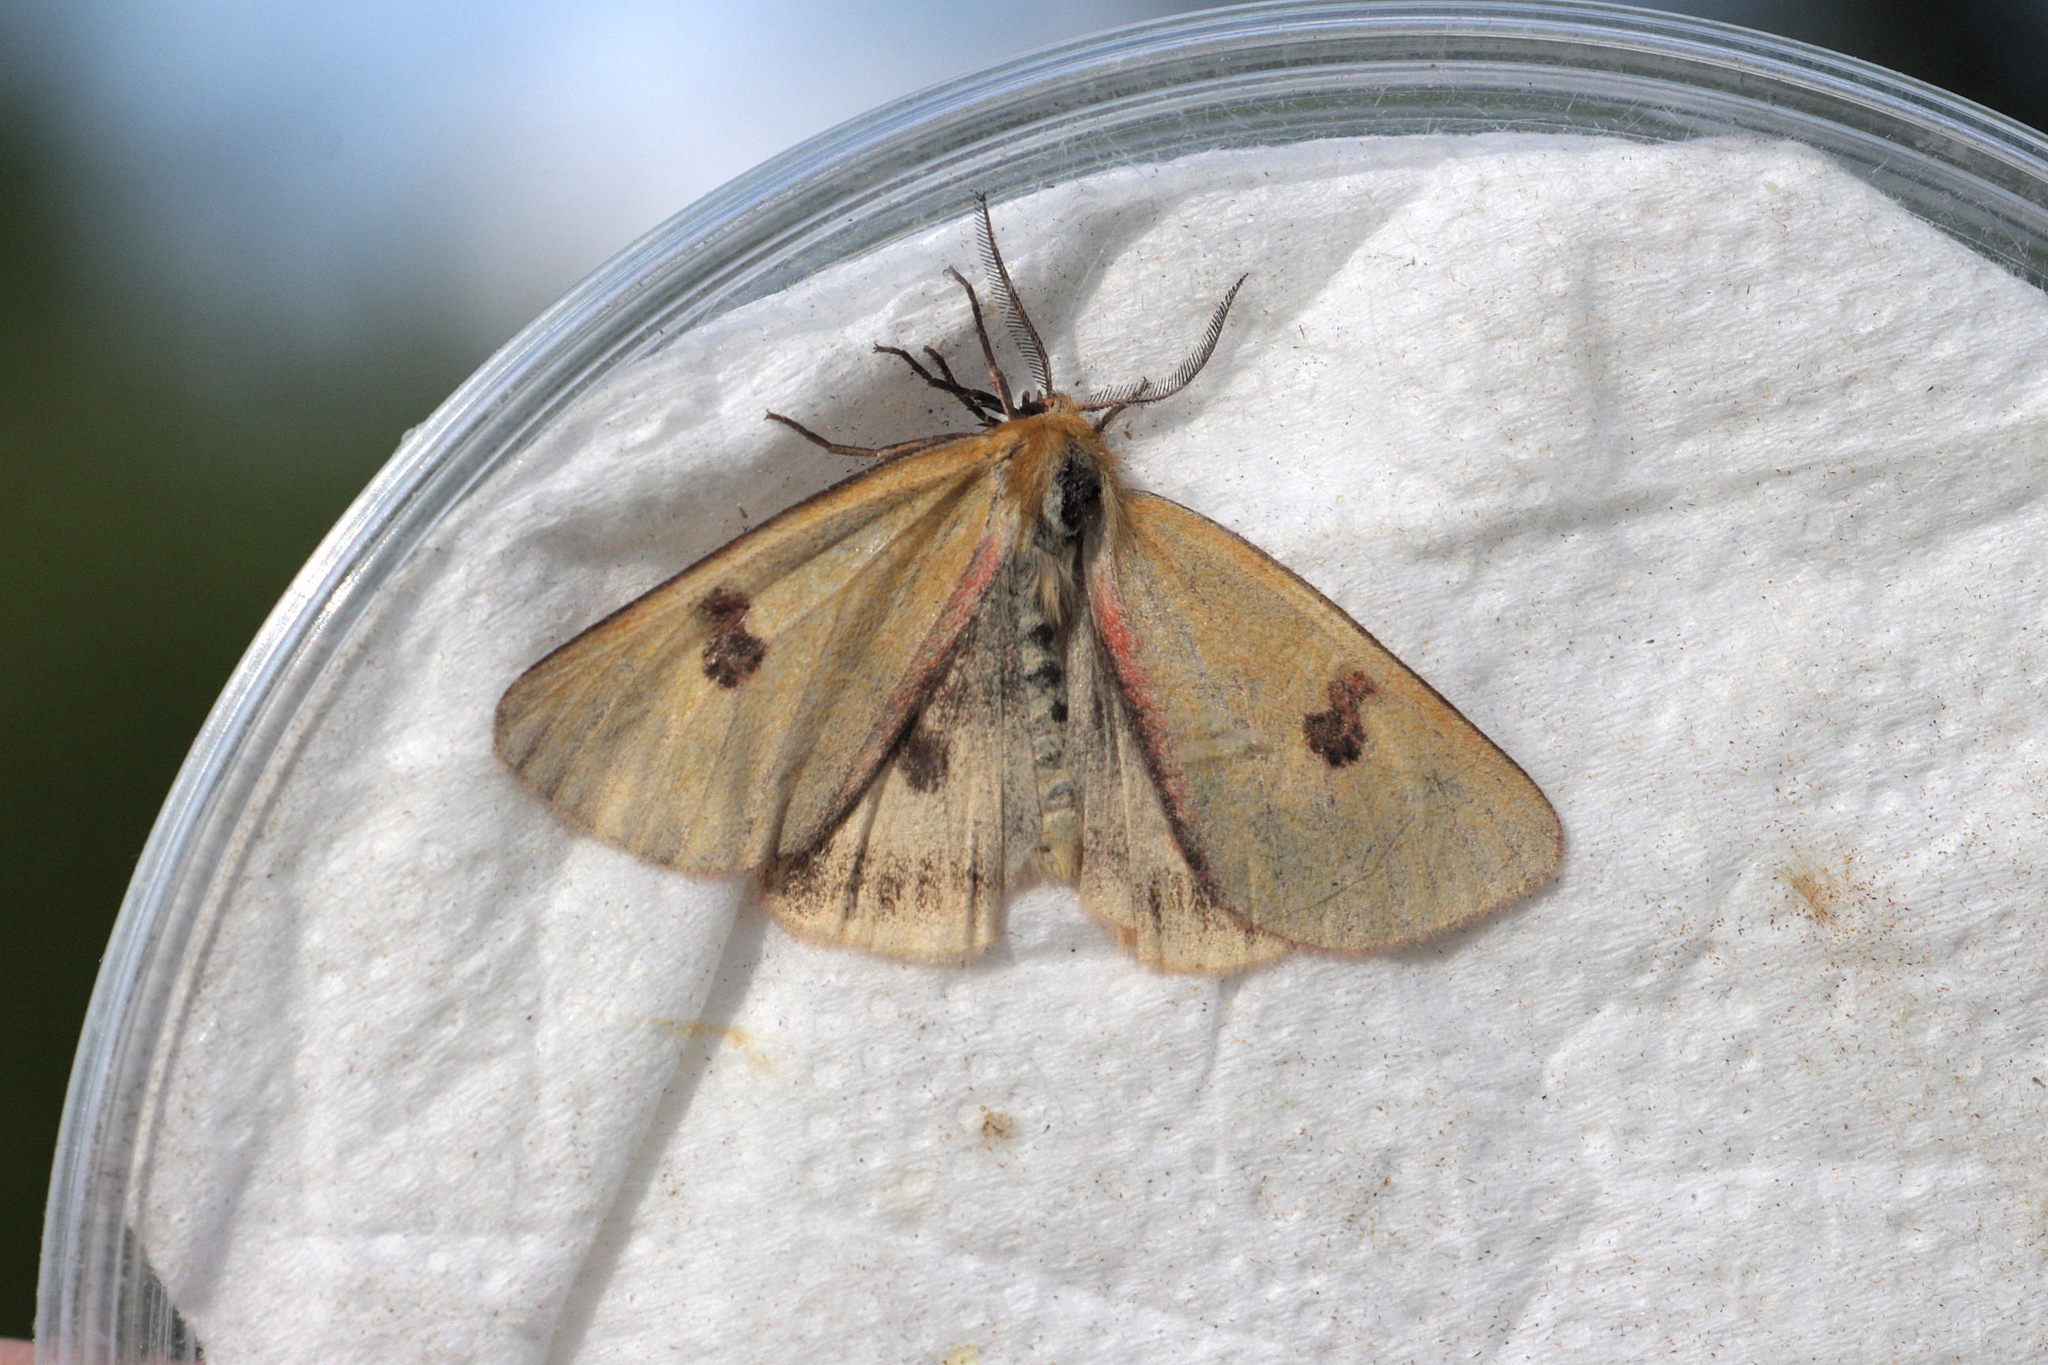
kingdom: Animalia
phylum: Arthropoda
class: Insecta
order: Lepidoptera
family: Erebidae
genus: Diacrisia
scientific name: Diacrisia sannio
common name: Clouded buff
